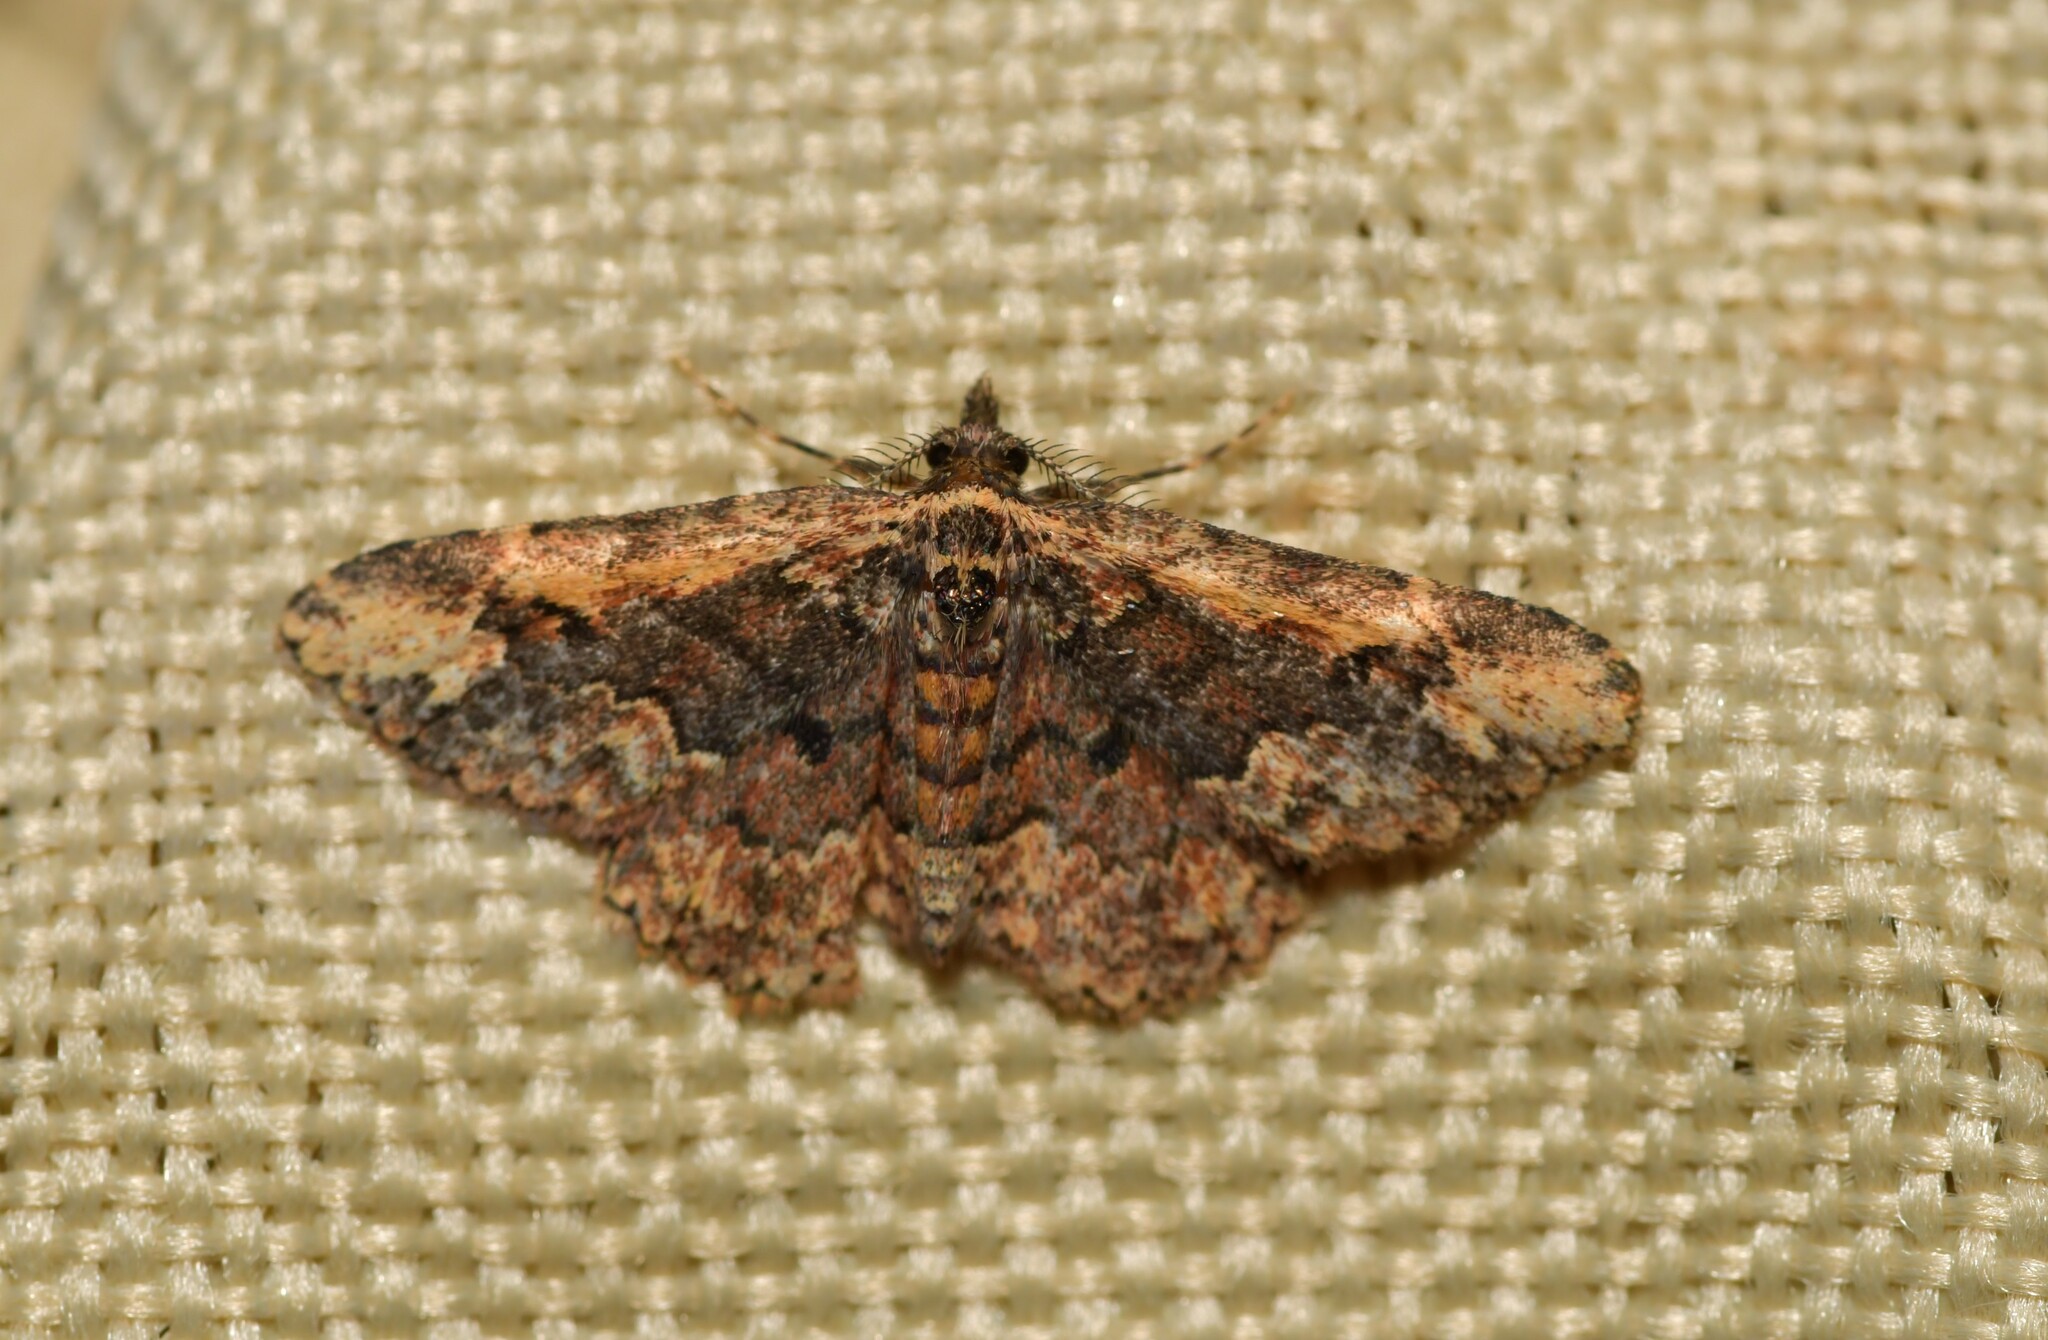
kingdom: Animalia
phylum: Arthropoda
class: Insecta
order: Lepidoptera
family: Erebidae
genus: Parascotia
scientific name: Parascotia nisseni
